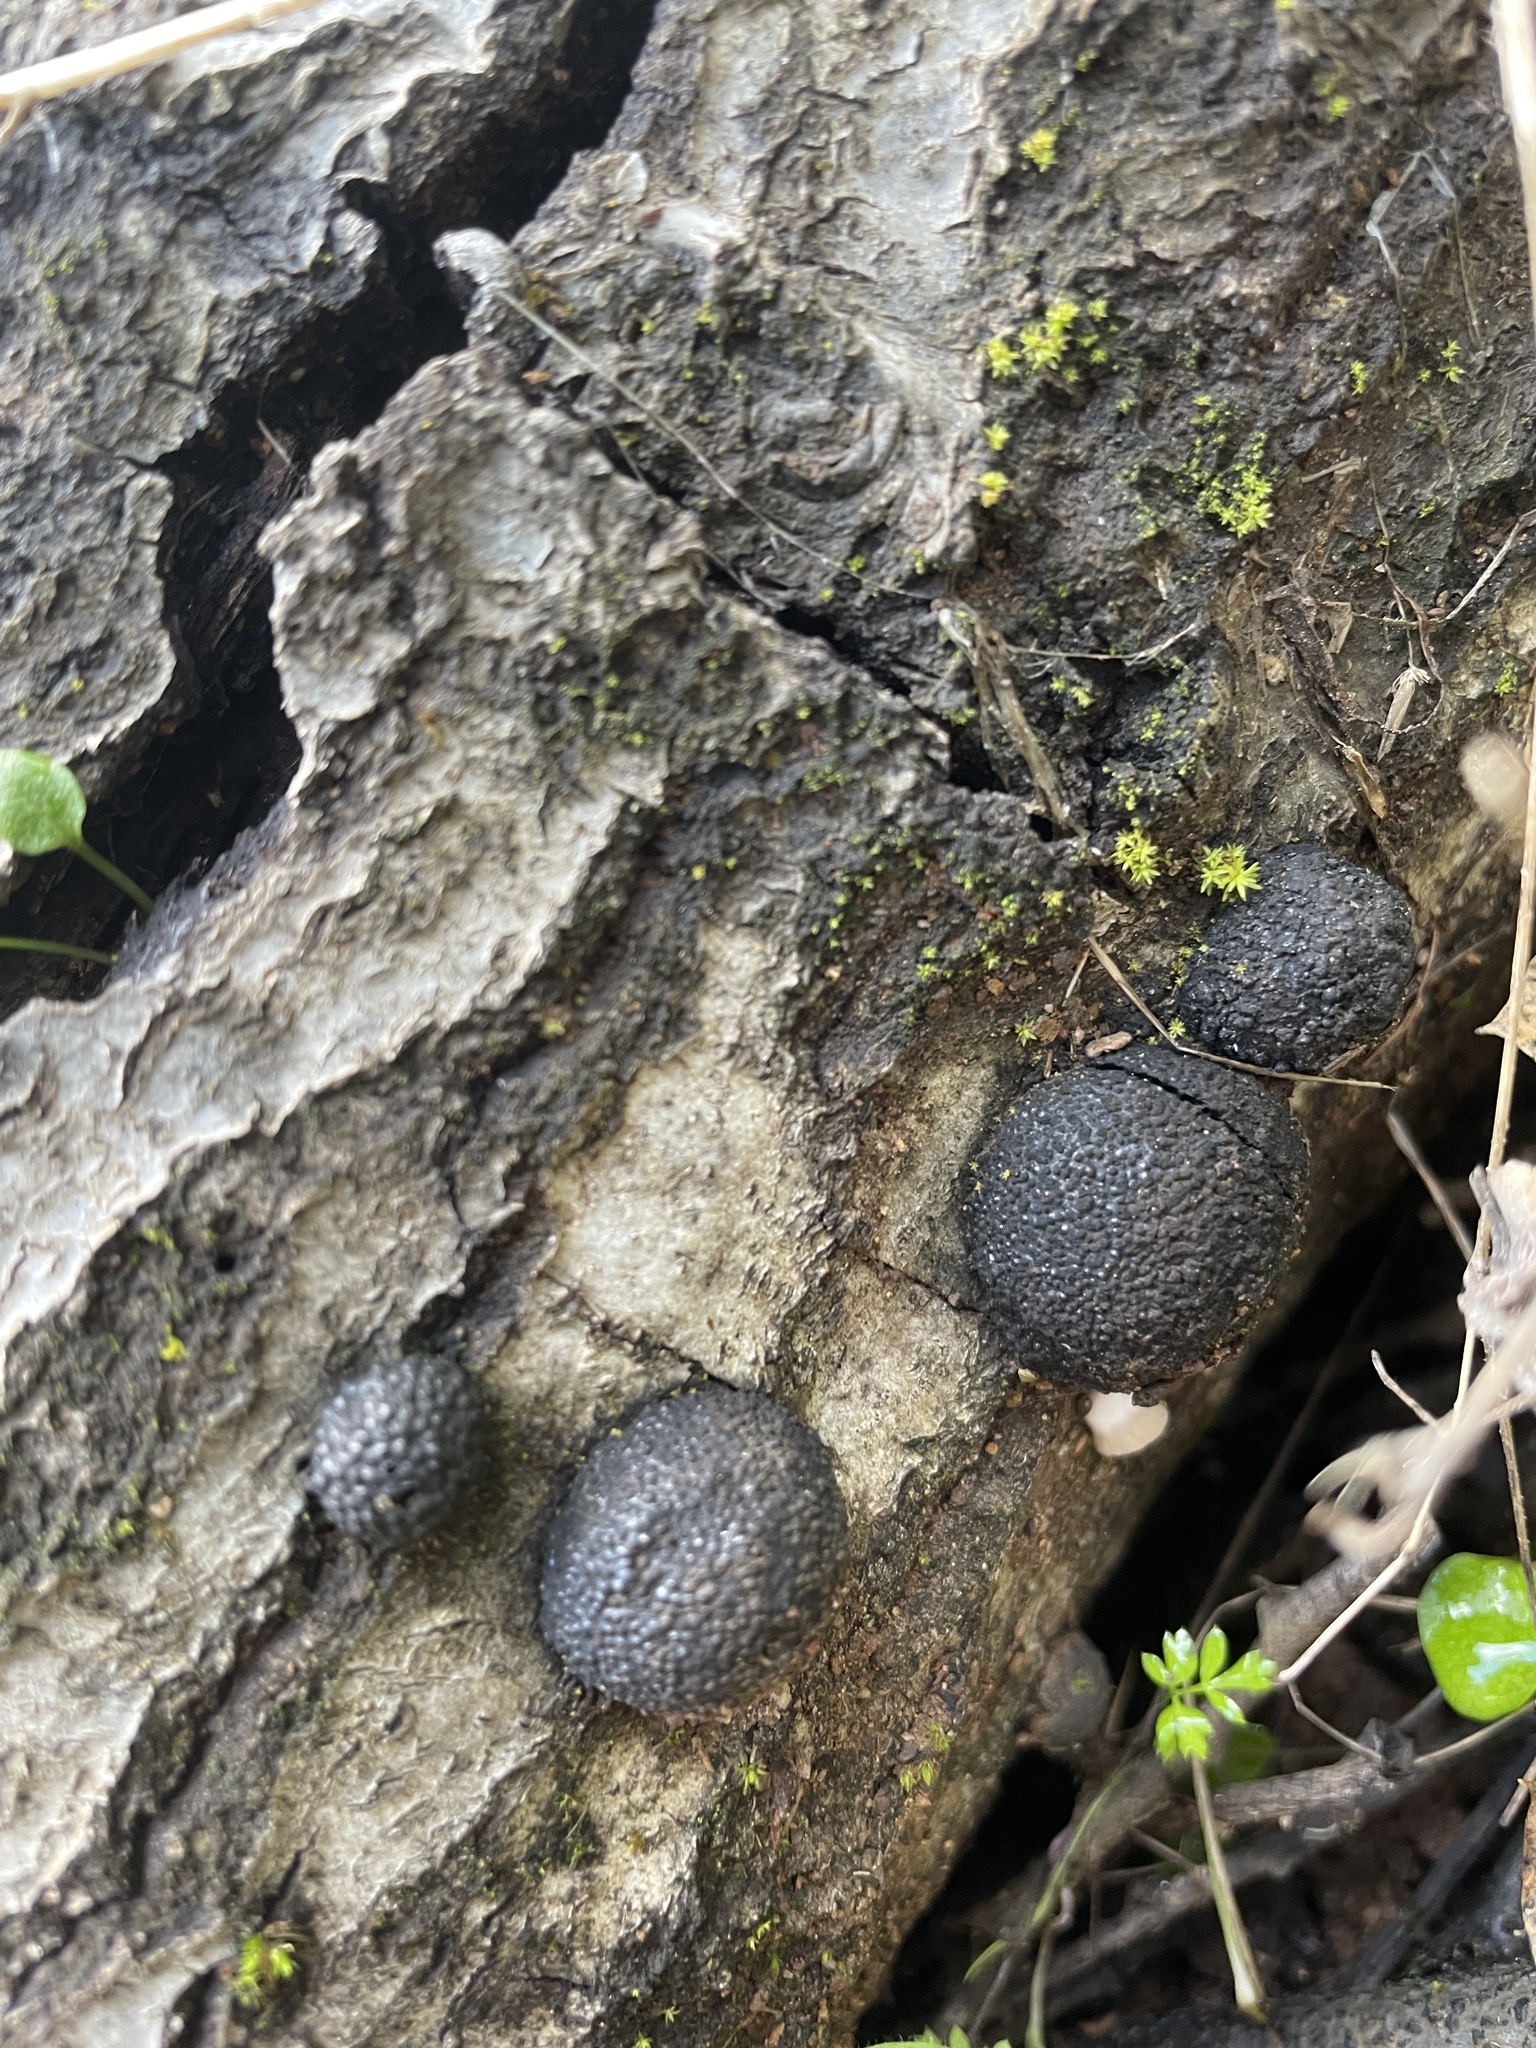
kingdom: Fungi
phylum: Ascomycota
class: Sordariomycetes
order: Xylariales
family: Hypoxylaceae
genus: Annulohypoxylon
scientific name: Annulohypoxylon thouarsianum
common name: Cramp balls
